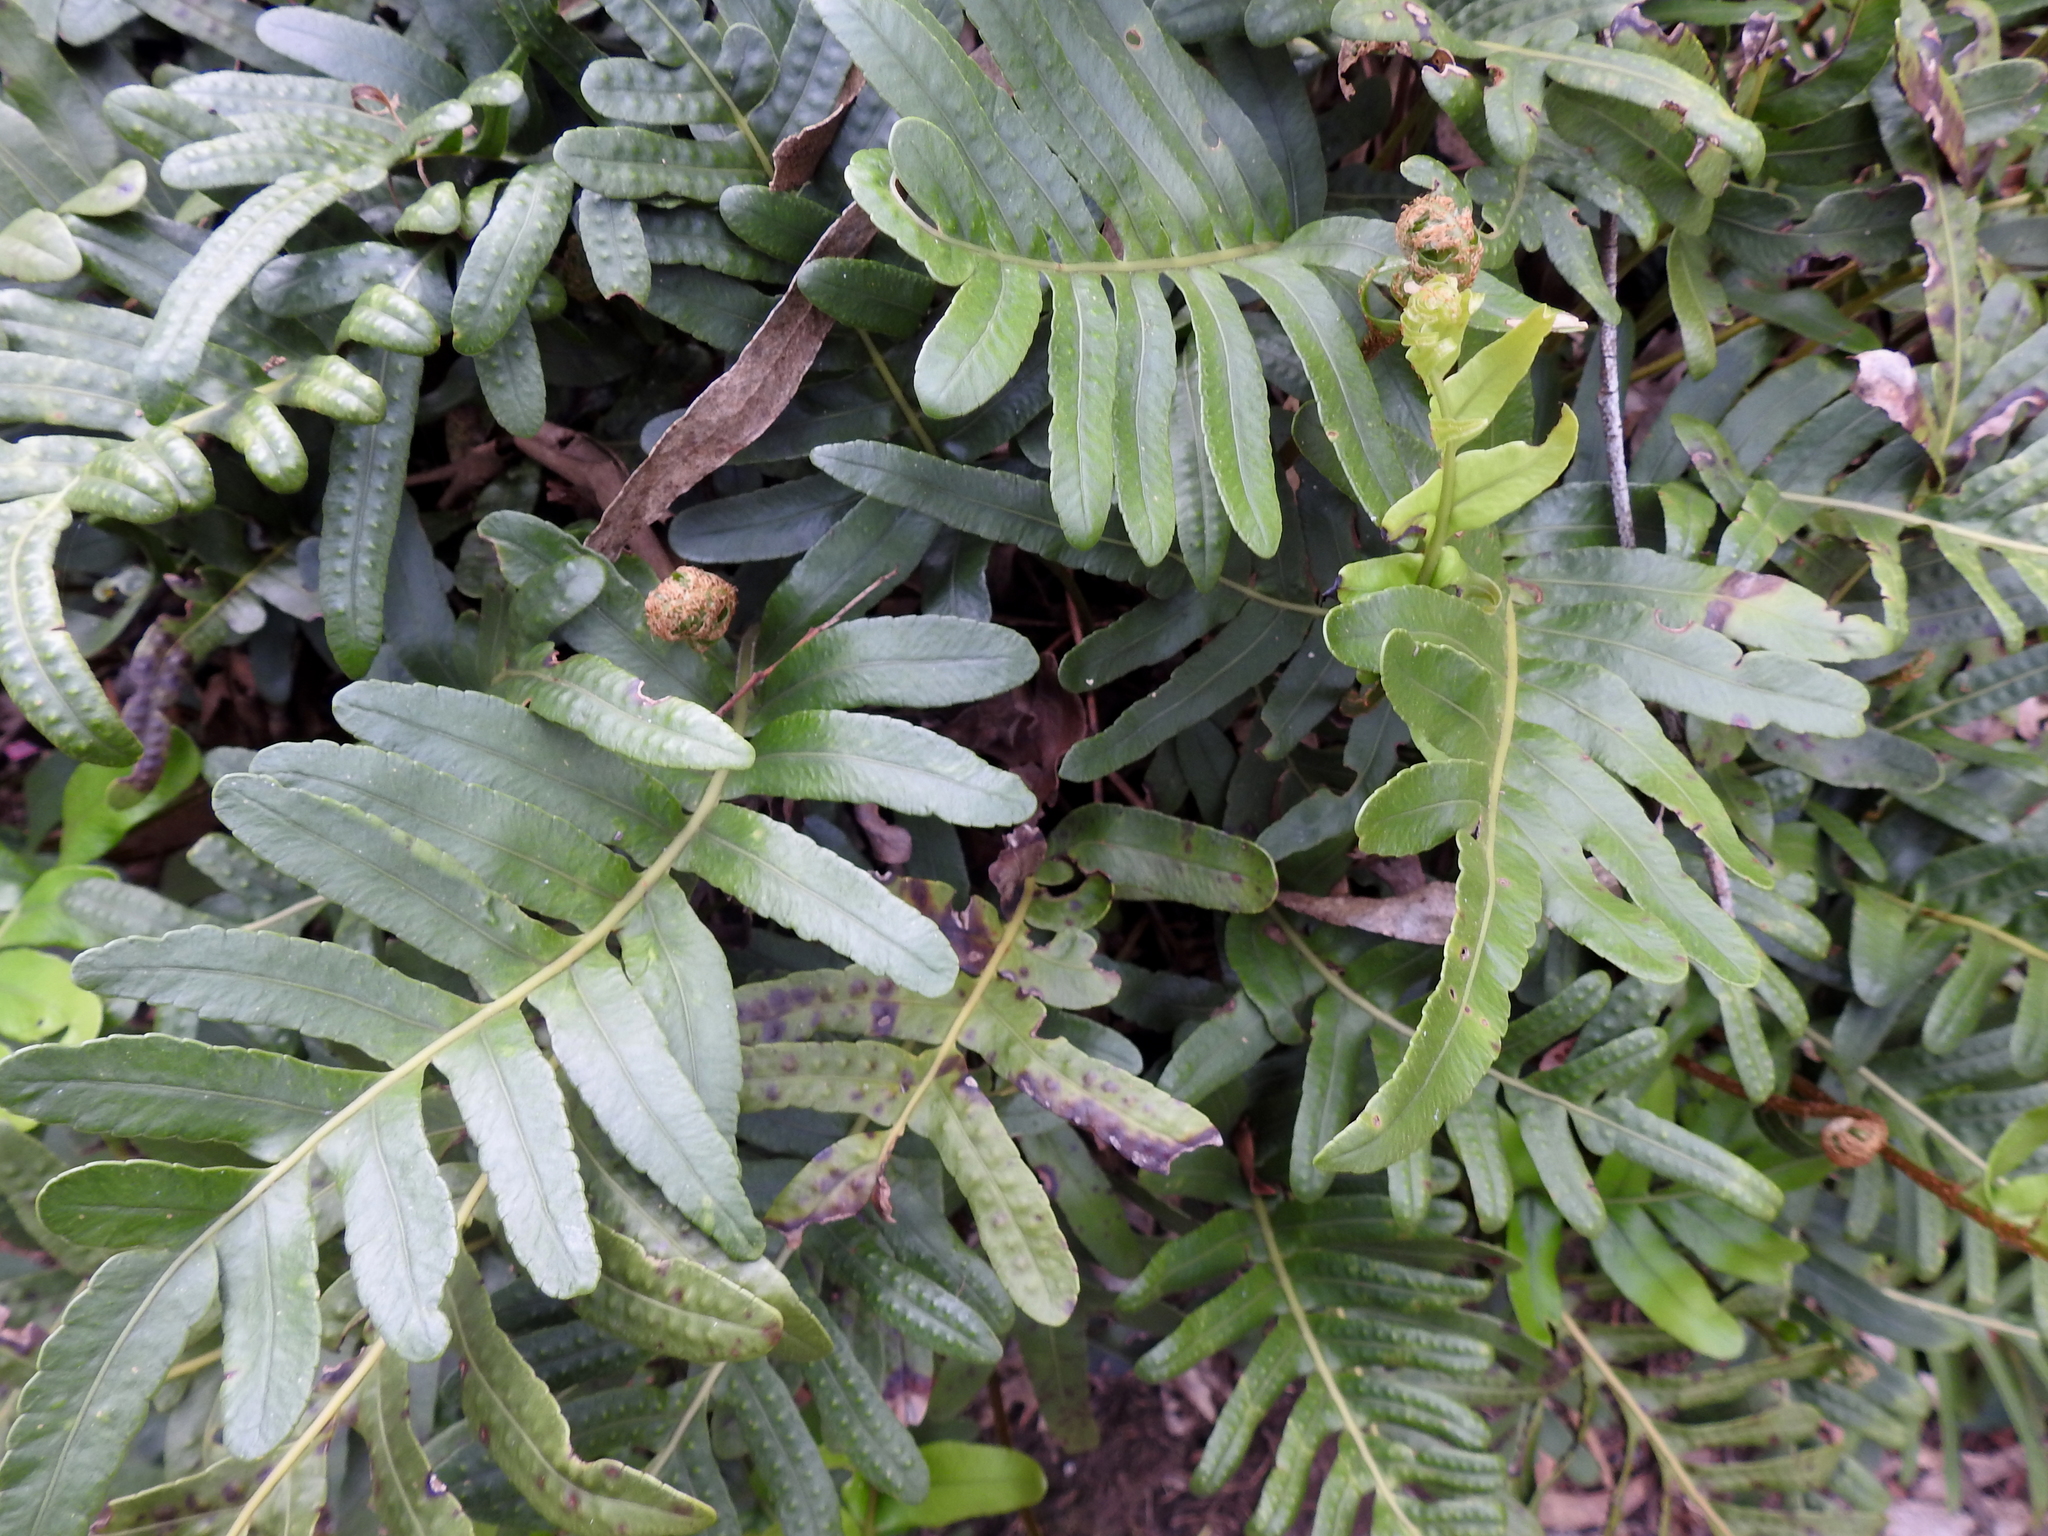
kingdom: Plantae
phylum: Tracheophyta
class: Polypodiopsida
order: Polypodiales
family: Polypodiaceae
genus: Polypodium
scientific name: Polypodium scouleri
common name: Scouler's polypody
